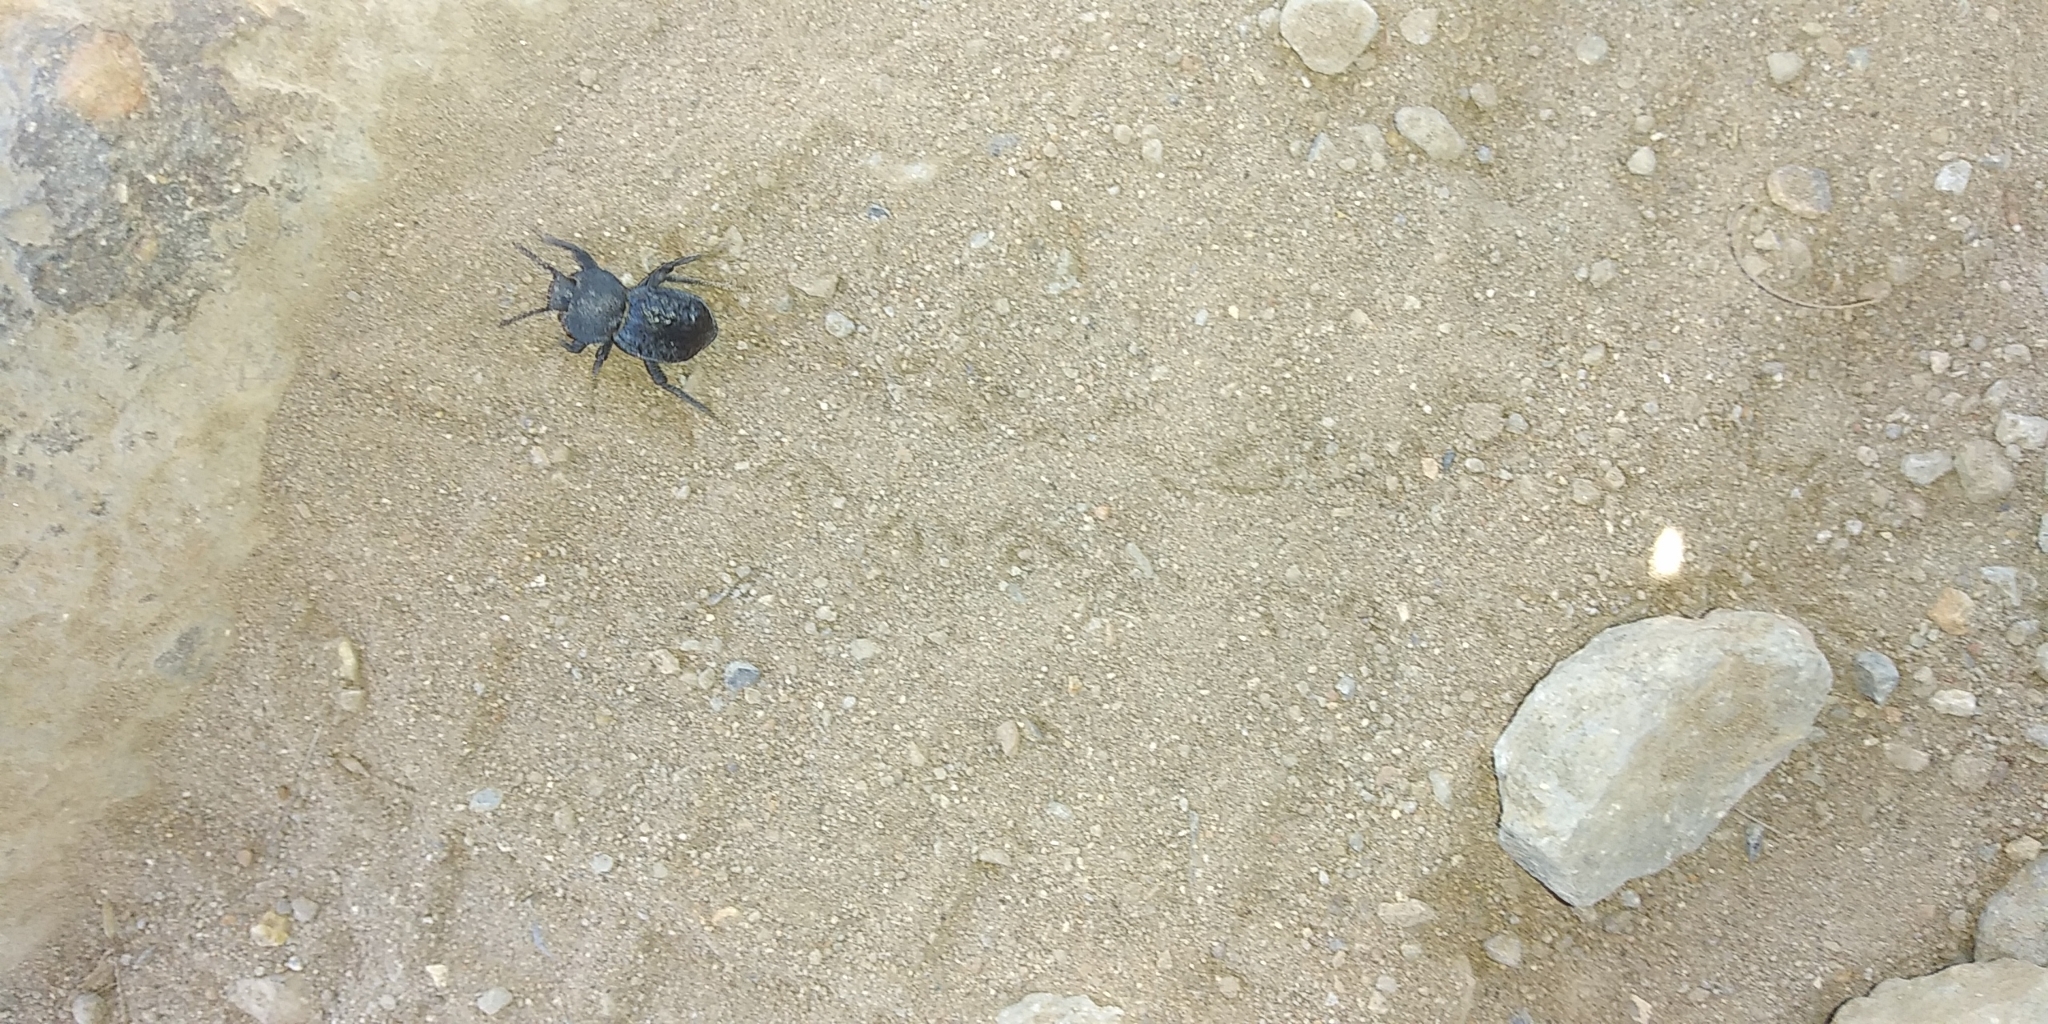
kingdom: Animalia
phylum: Arthropoda
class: Insecta
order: Coleoptera
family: Tenebrionidae
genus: Microschatia
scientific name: Microschatia inaequalis
